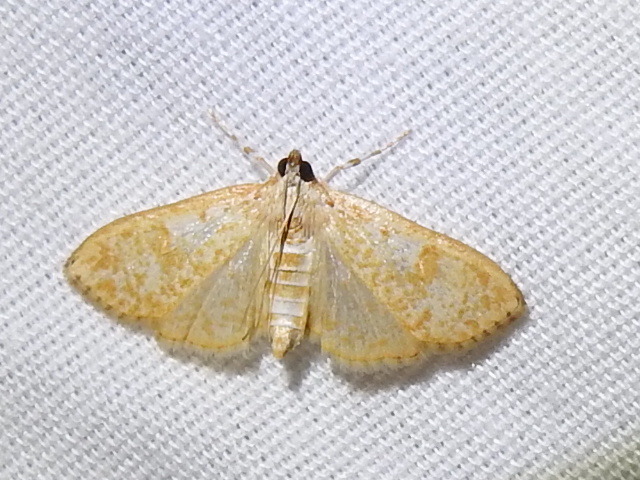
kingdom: Animalia
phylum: Arthropoda
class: Insecta
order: Lepidoptera
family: Crambidae
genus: Palpita
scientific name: Palpita freemanalis
